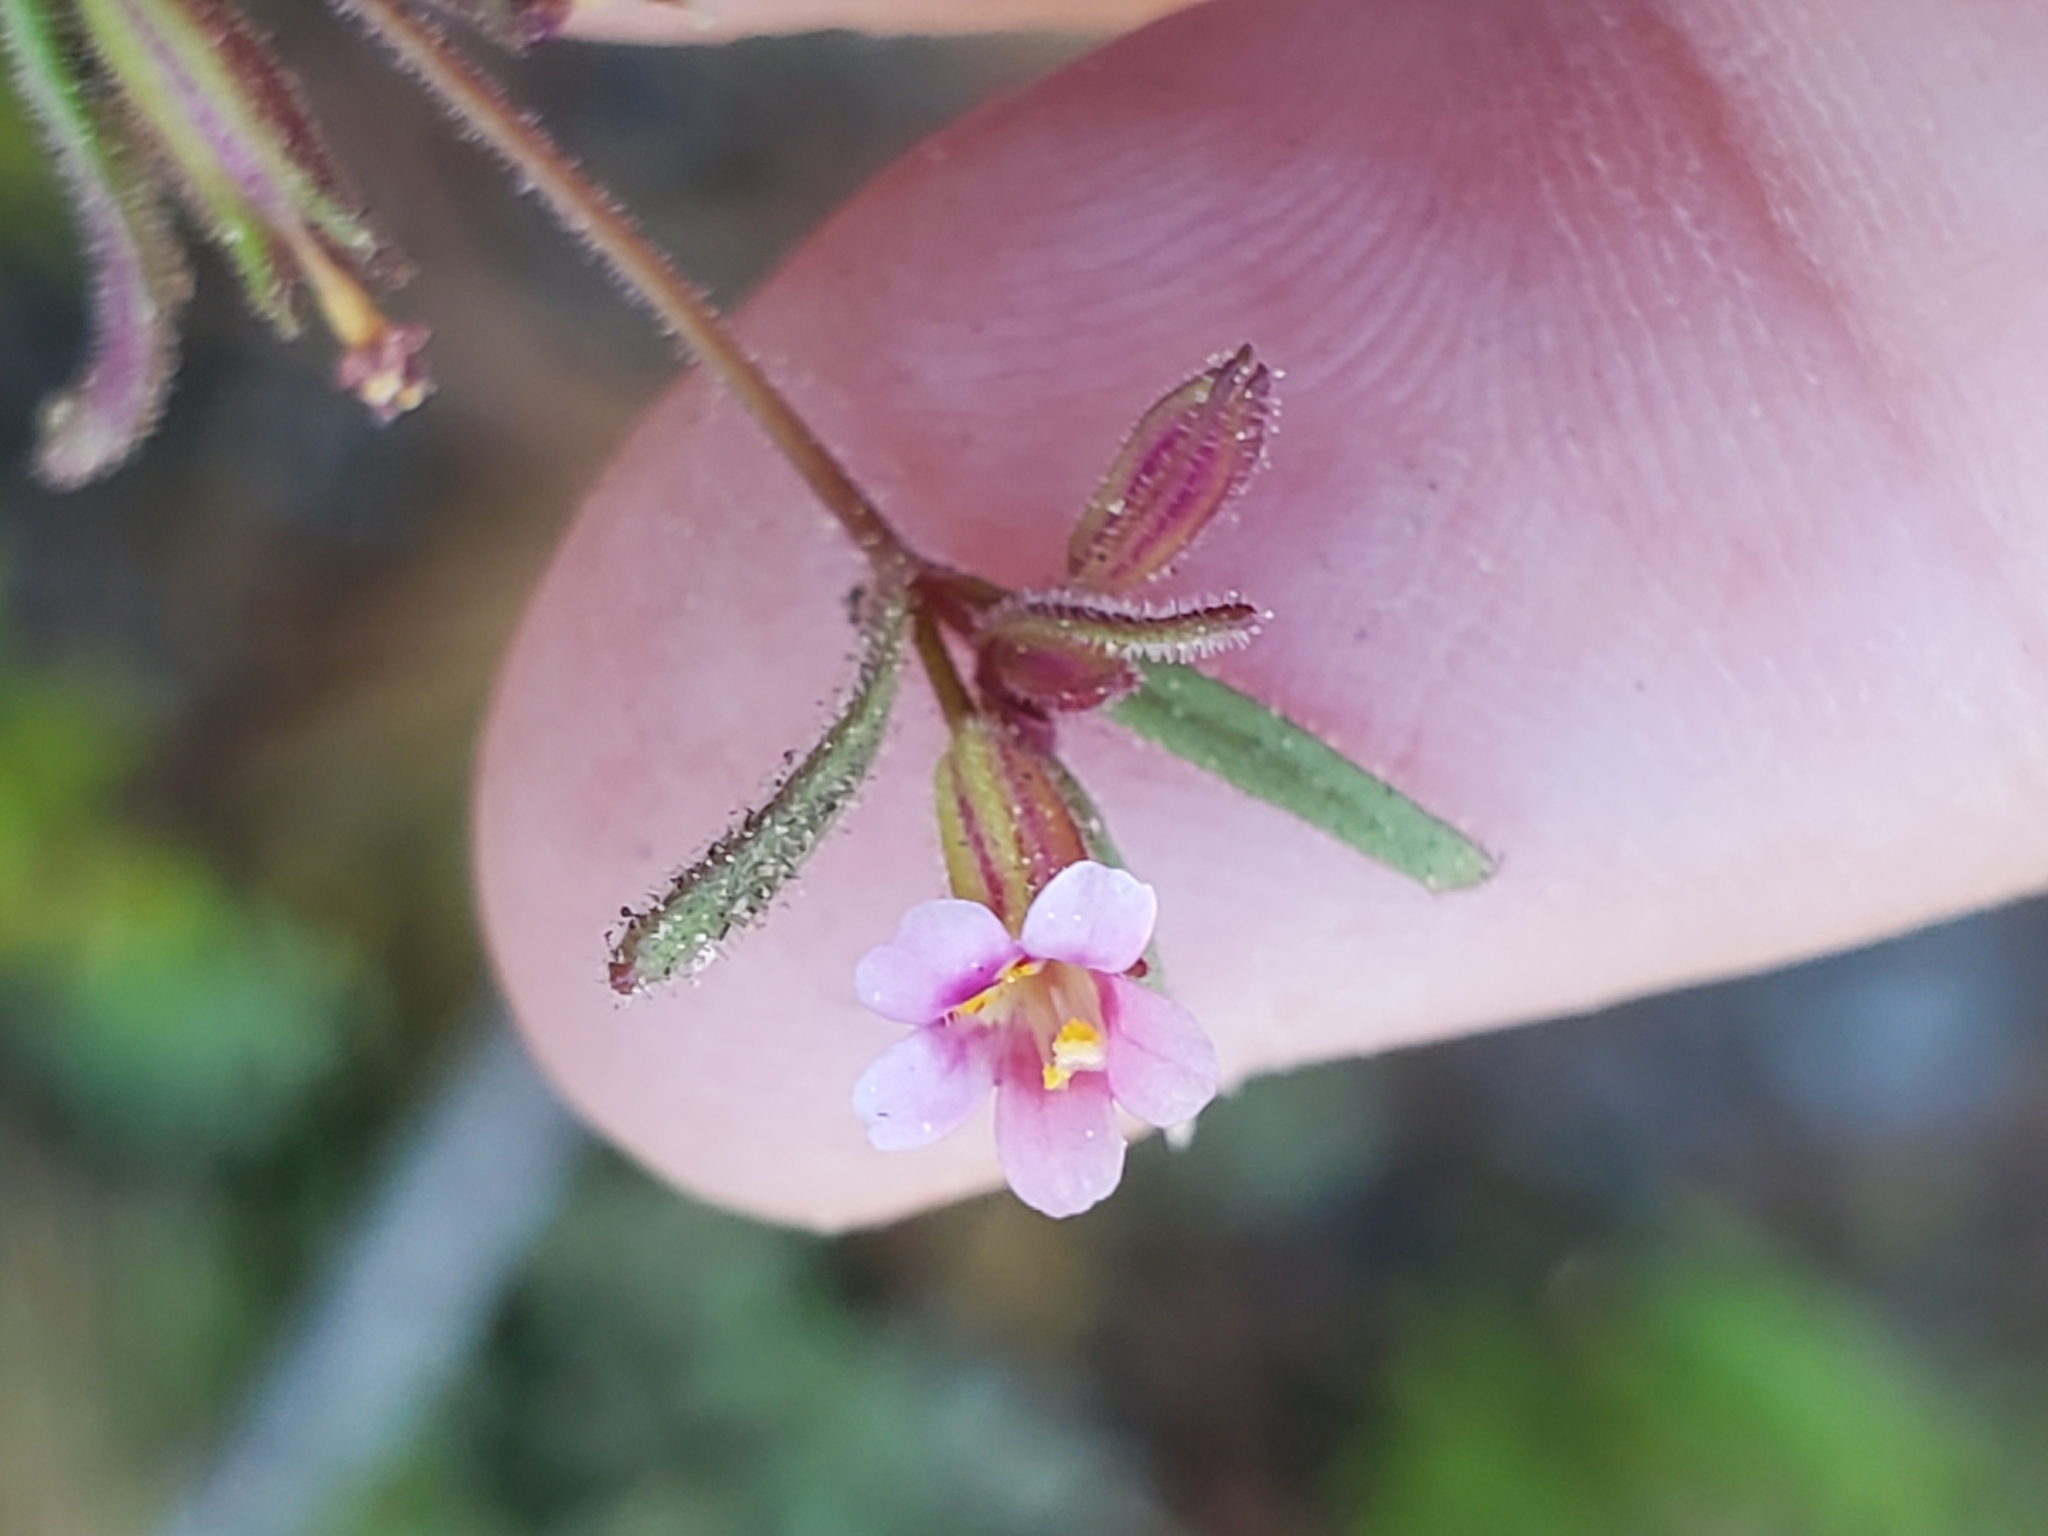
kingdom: Plantae
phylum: Tracheophyta
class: Magnoliopsida
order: Lamiales
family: Phrymaceae
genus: Erythranthe
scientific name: Erythranthe breweri
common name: Brewer's monkeyflower
